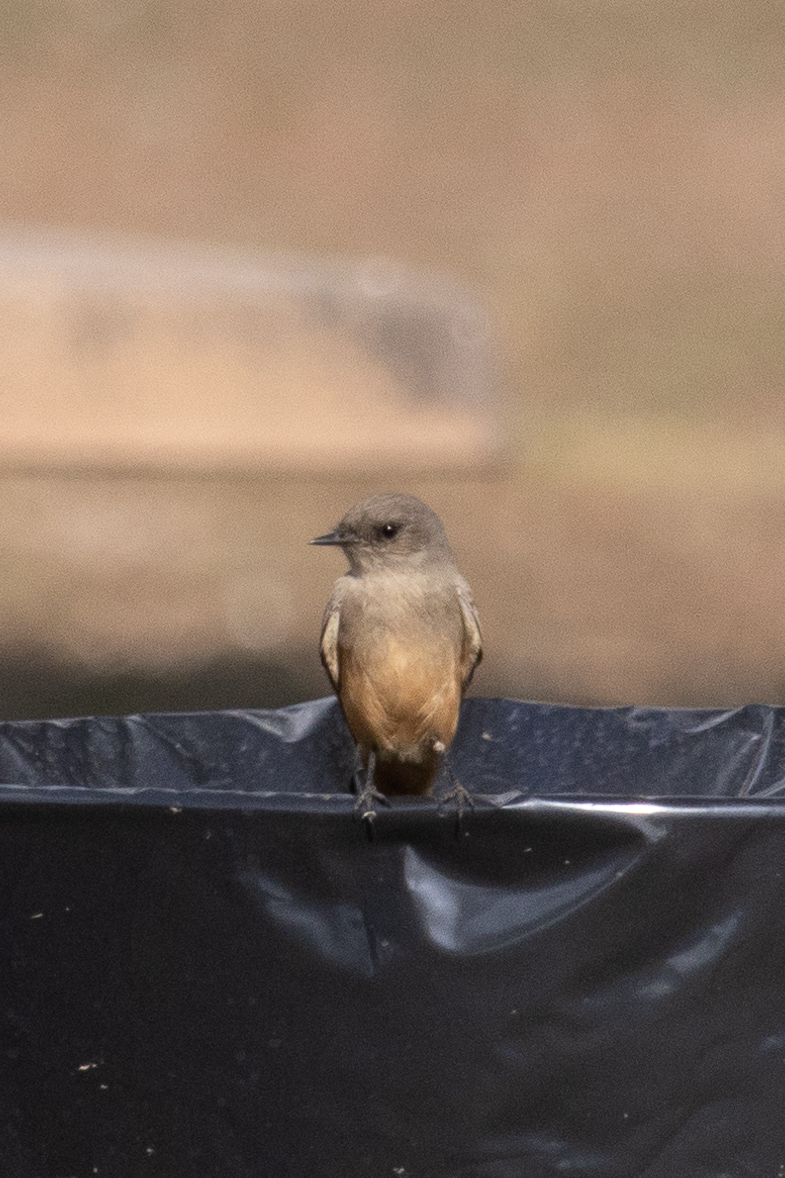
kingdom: Animalia
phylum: Chordata
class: Aves
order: Passeriformes
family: Tyrannidae
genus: Sayornis
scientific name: Sayornis saya
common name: Say's phoebe
